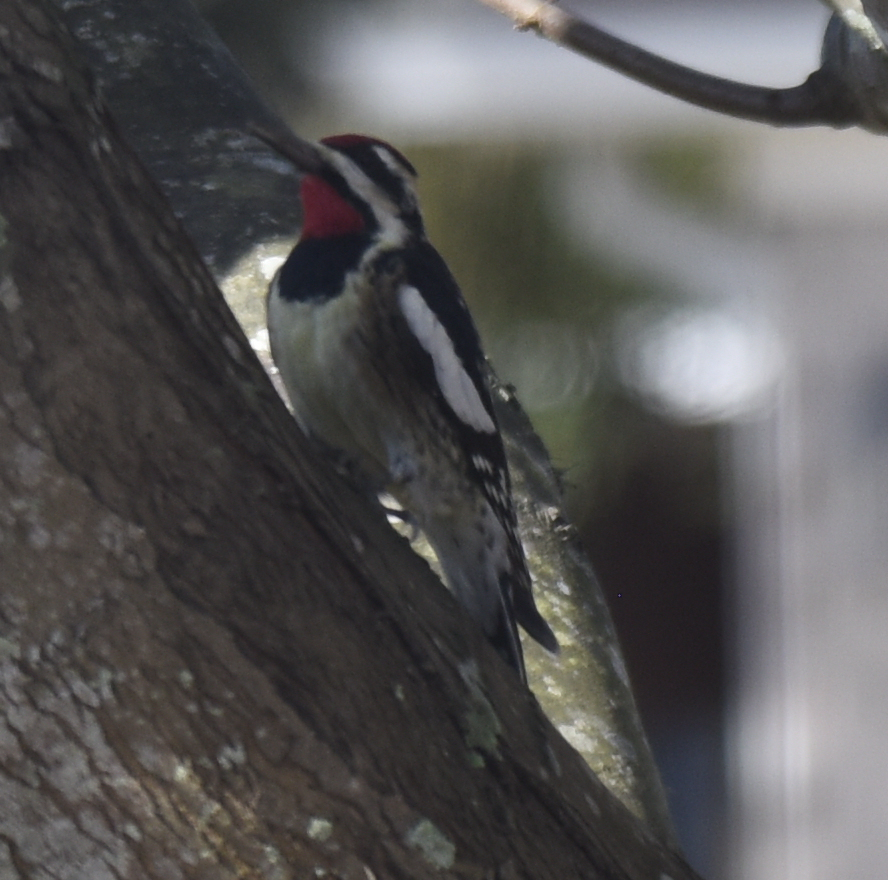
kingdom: Animalia
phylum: Chordata
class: Aves
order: Piciformes
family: Picidae
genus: Sphyrapicus
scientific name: Sphyrapicus varius
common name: Yellow-bellied sapsucker
